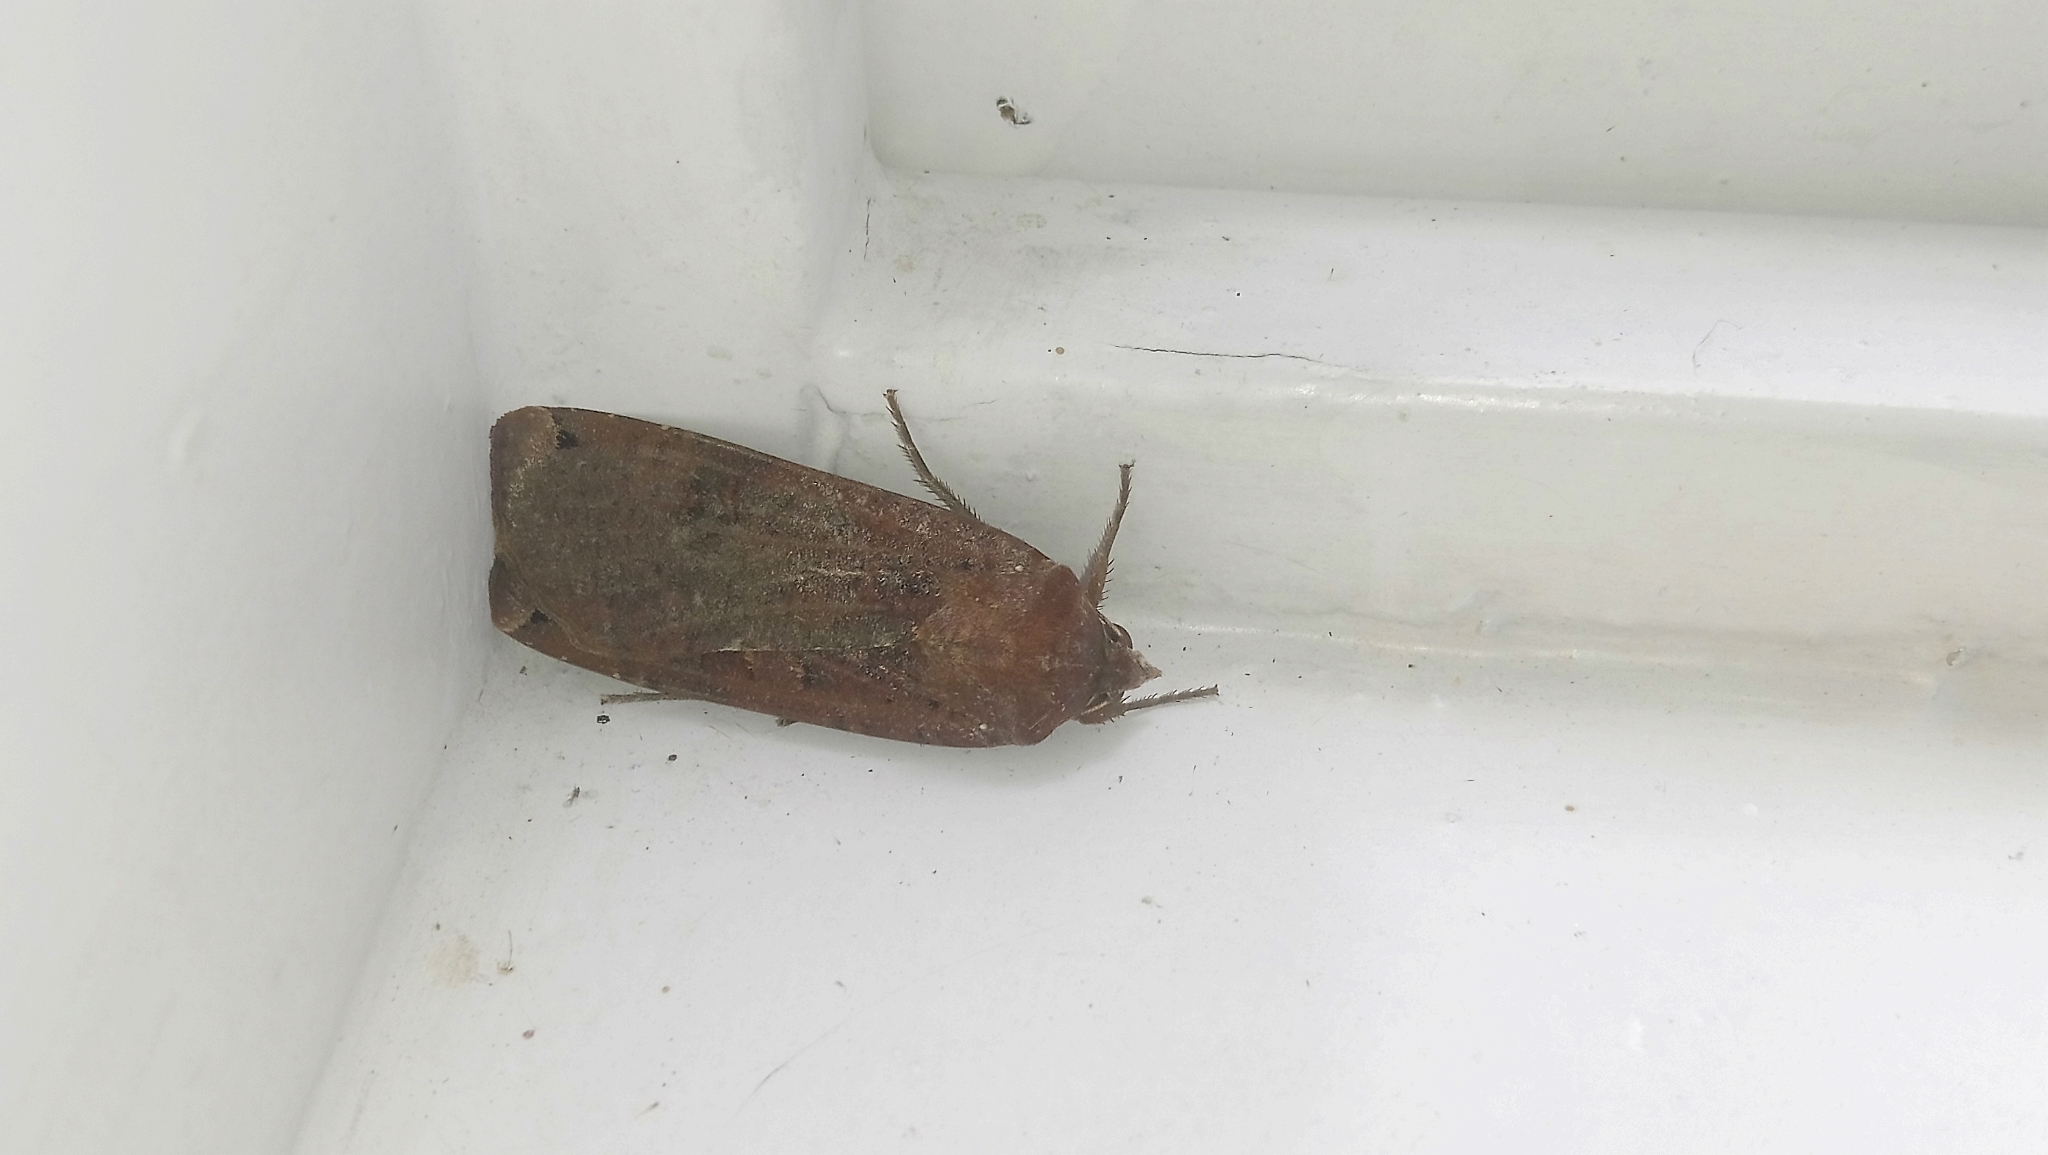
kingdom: Animalia
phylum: Arthropoda
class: Insecta
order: Lepidoptera
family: Noctuidae
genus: Noctua
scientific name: Noctua pronuba
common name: Large yellow underwing
